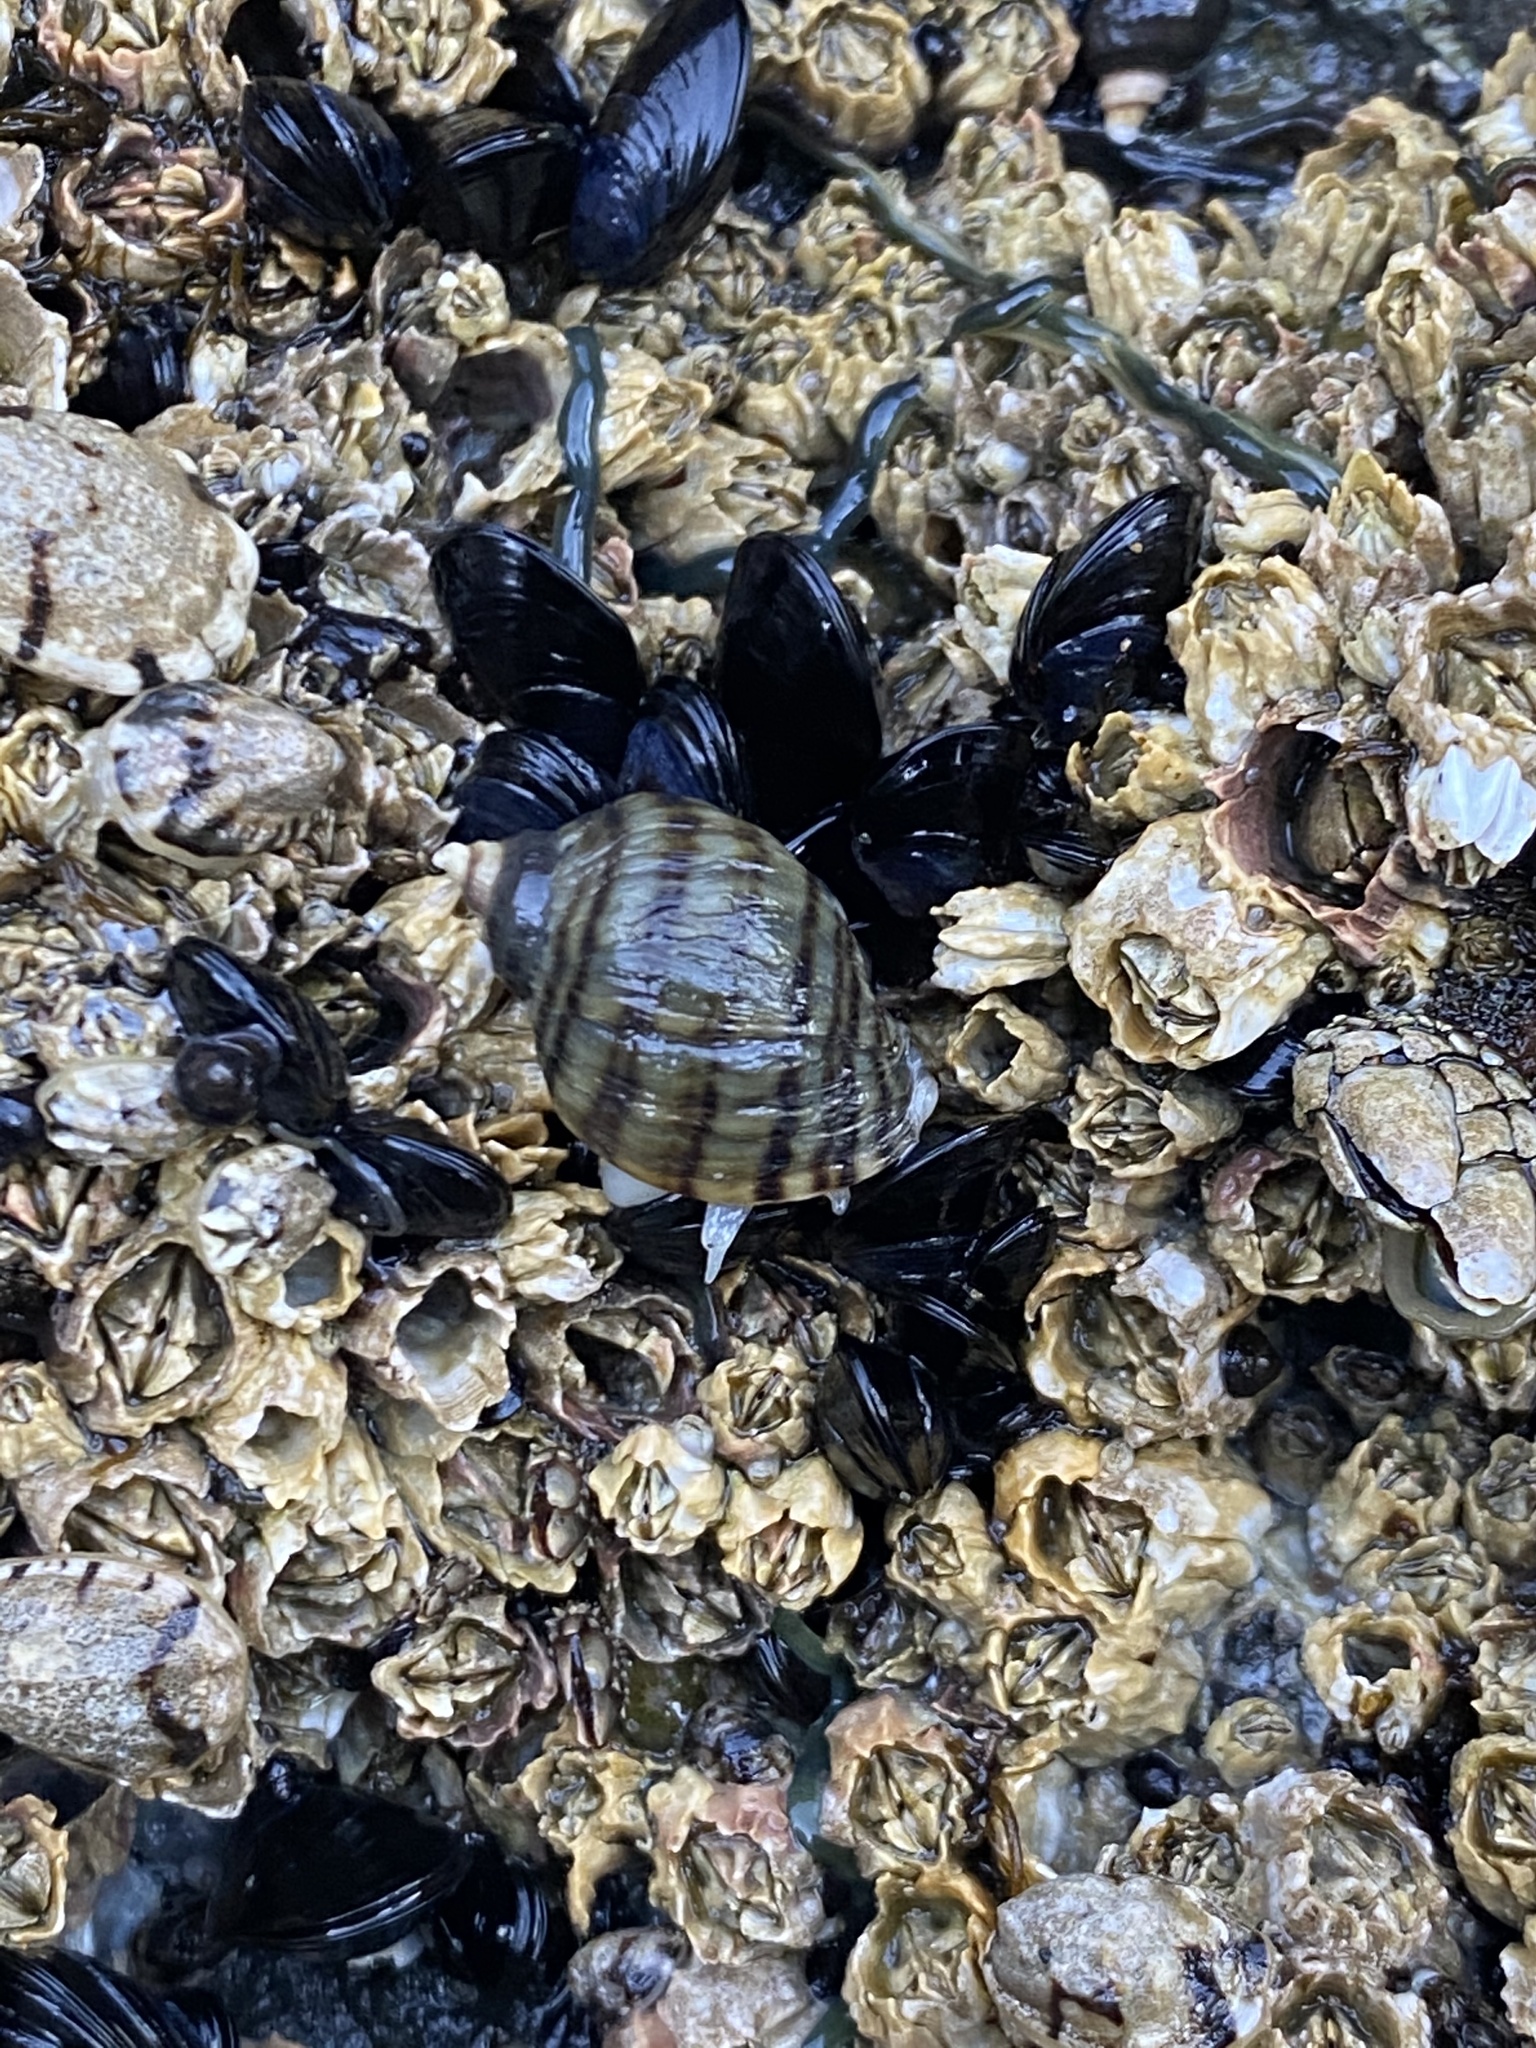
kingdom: Animalia
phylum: Mollusca
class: Gastropoda
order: Neogastropoda
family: Muricidae
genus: Nucella
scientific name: Nucella ostrina
